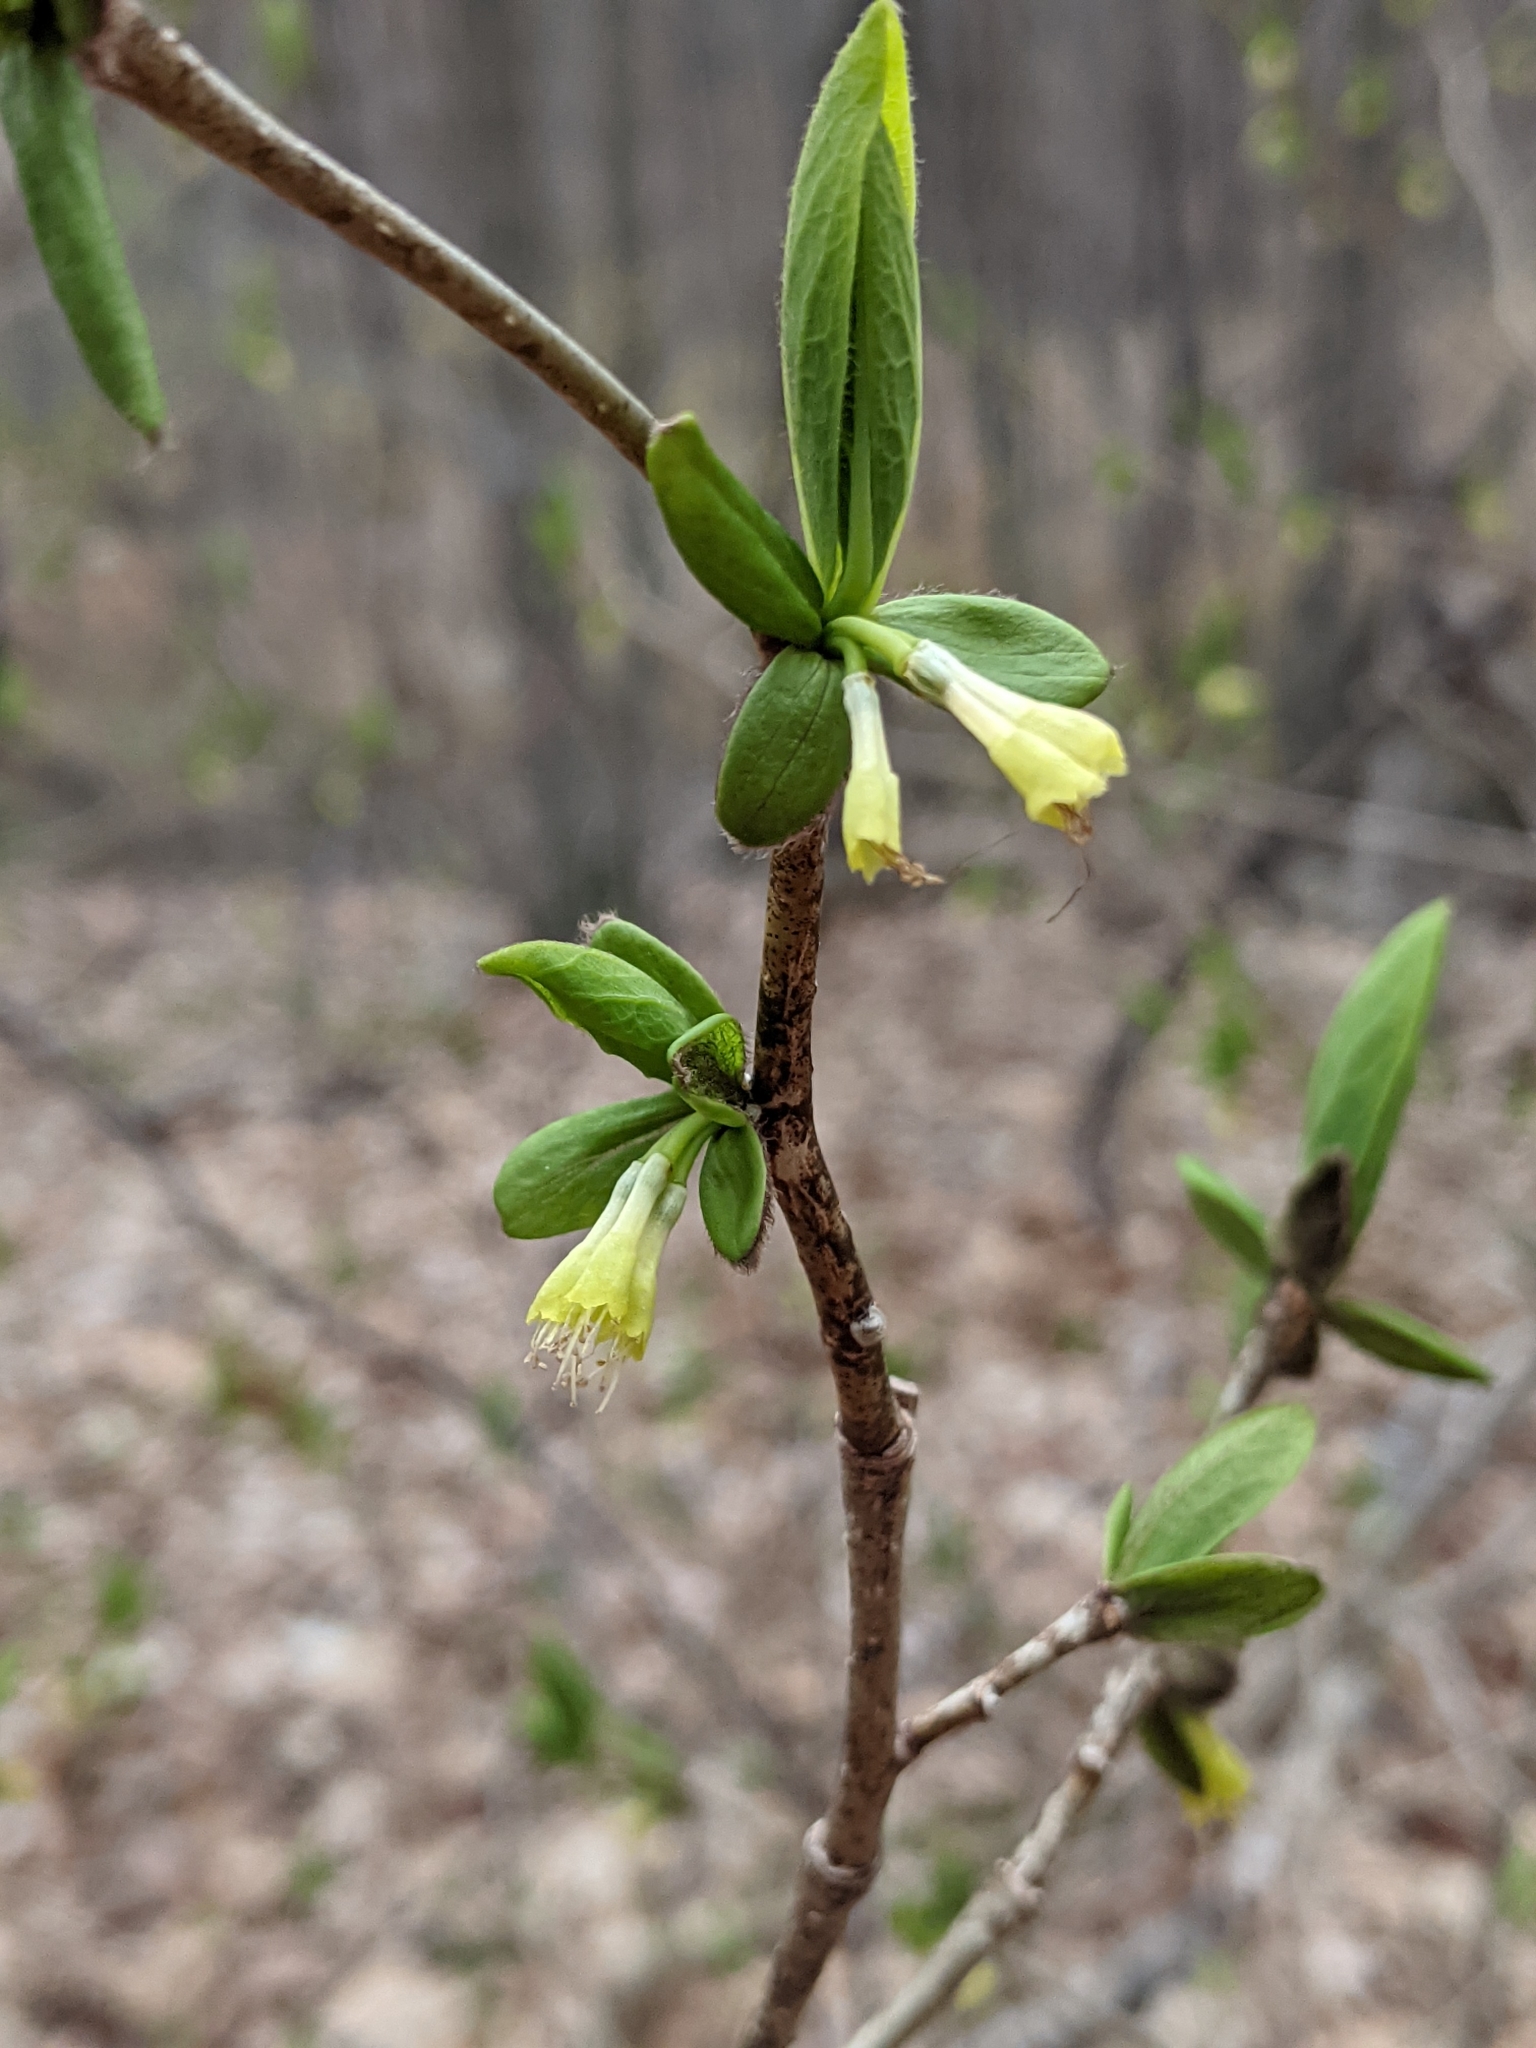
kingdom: Plantae
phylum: Tracheophyta
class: Magnoliopsida
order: Malvales
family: Thymelaeaceae
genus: Dirca
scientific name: Dirca palustris
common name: Leatherwood
